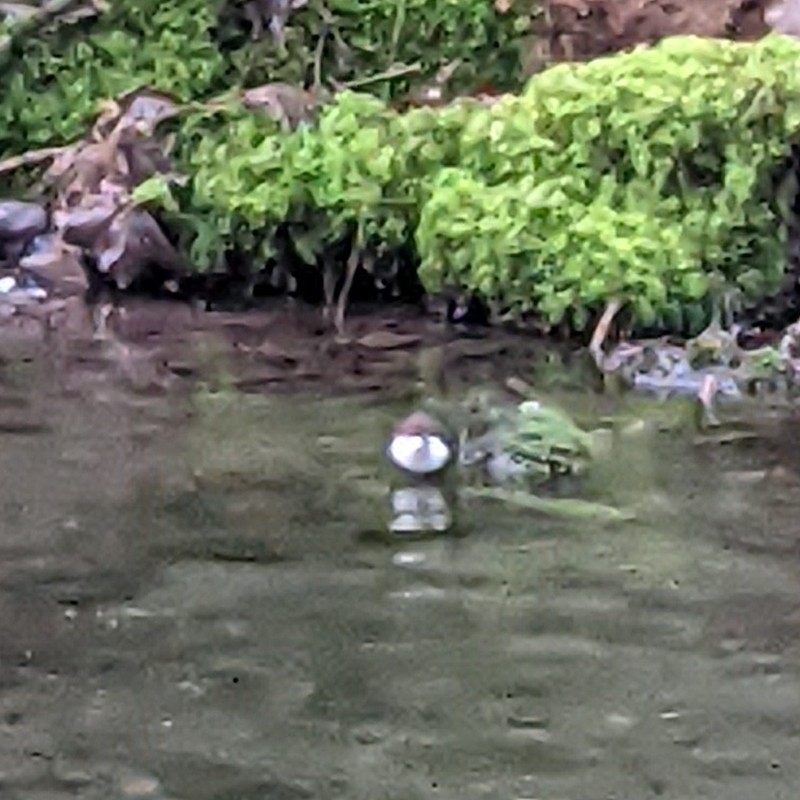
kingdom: Animalia
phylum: Chordata
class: Aves
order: Passeriformes
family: Cinclidae
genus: Cinclus
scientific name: Cinclus cinclus
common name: White-throated dipper
